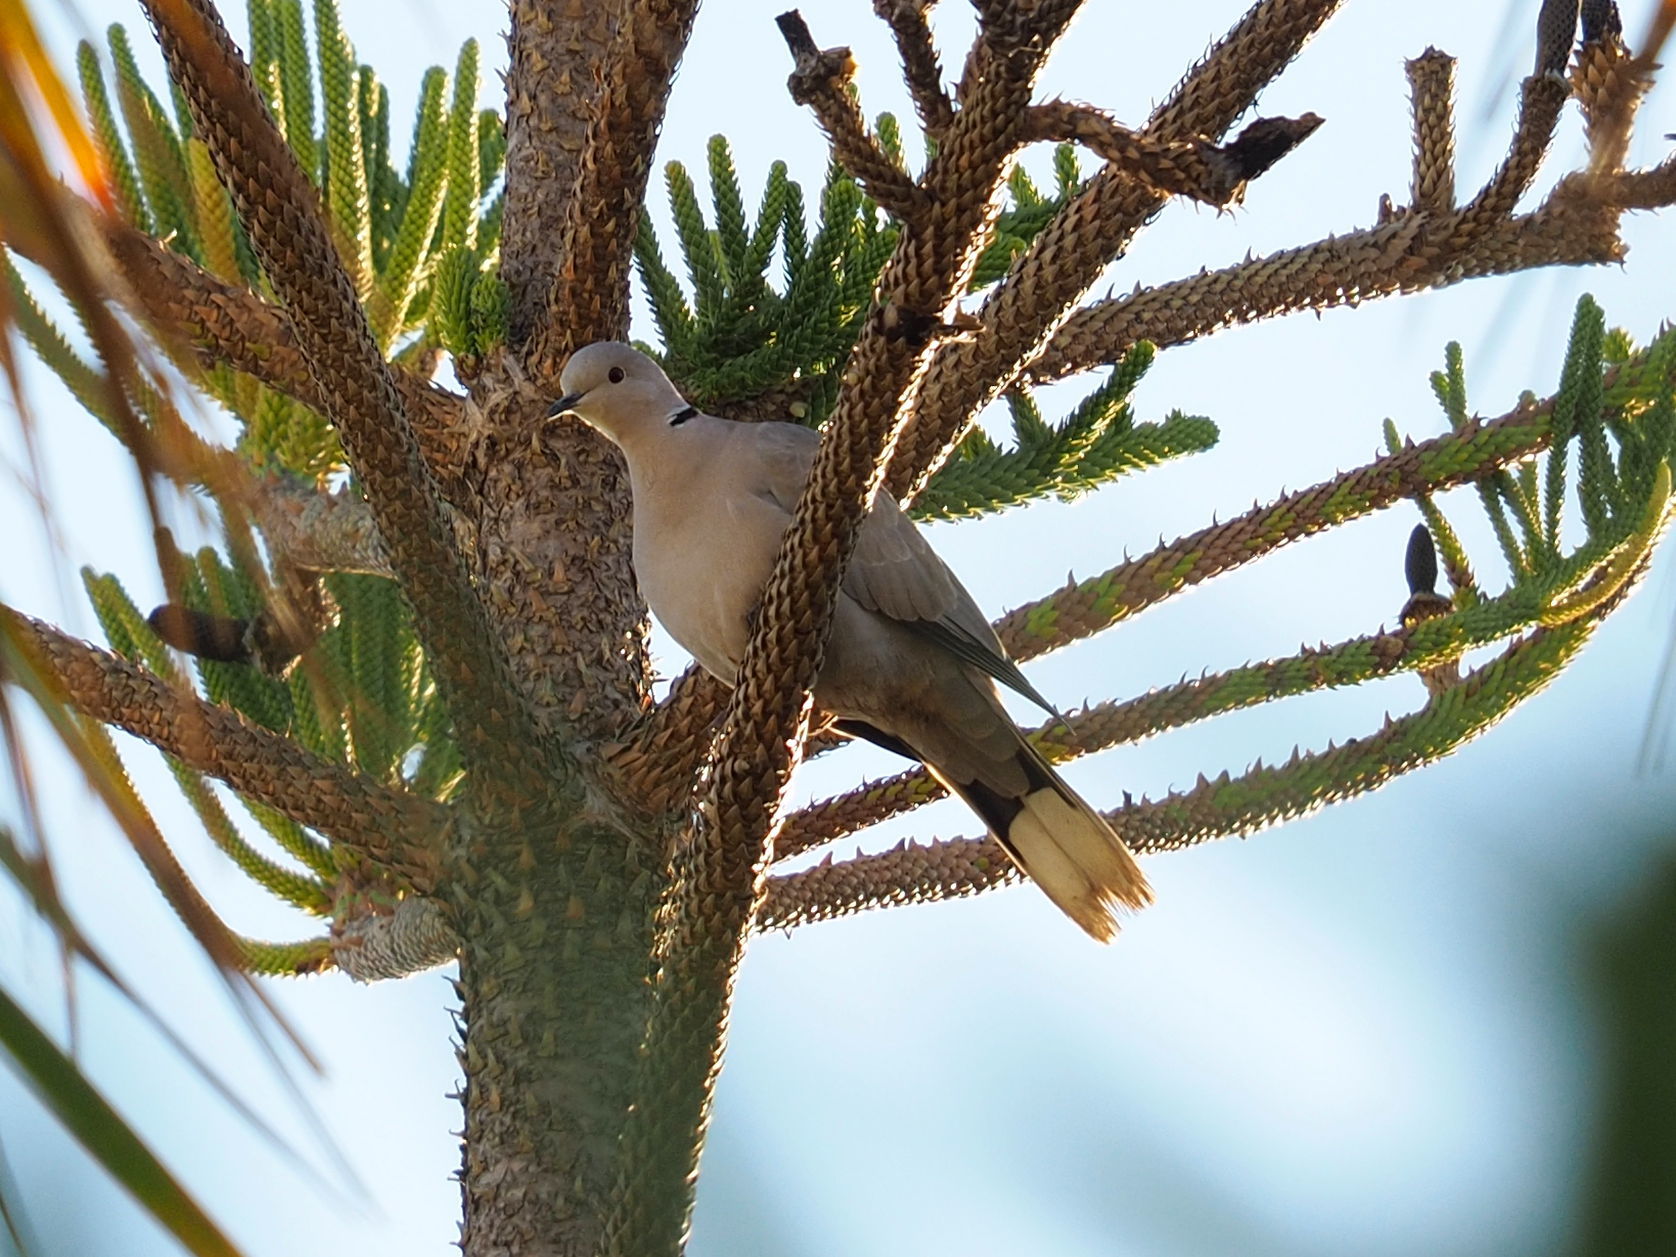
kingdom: Animalia
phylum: Chordata
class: Aves
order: Columbiformes
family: Columbidae
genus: Streptopelia
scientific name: Streptopelia decaocto
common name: Eurasian collared dove
